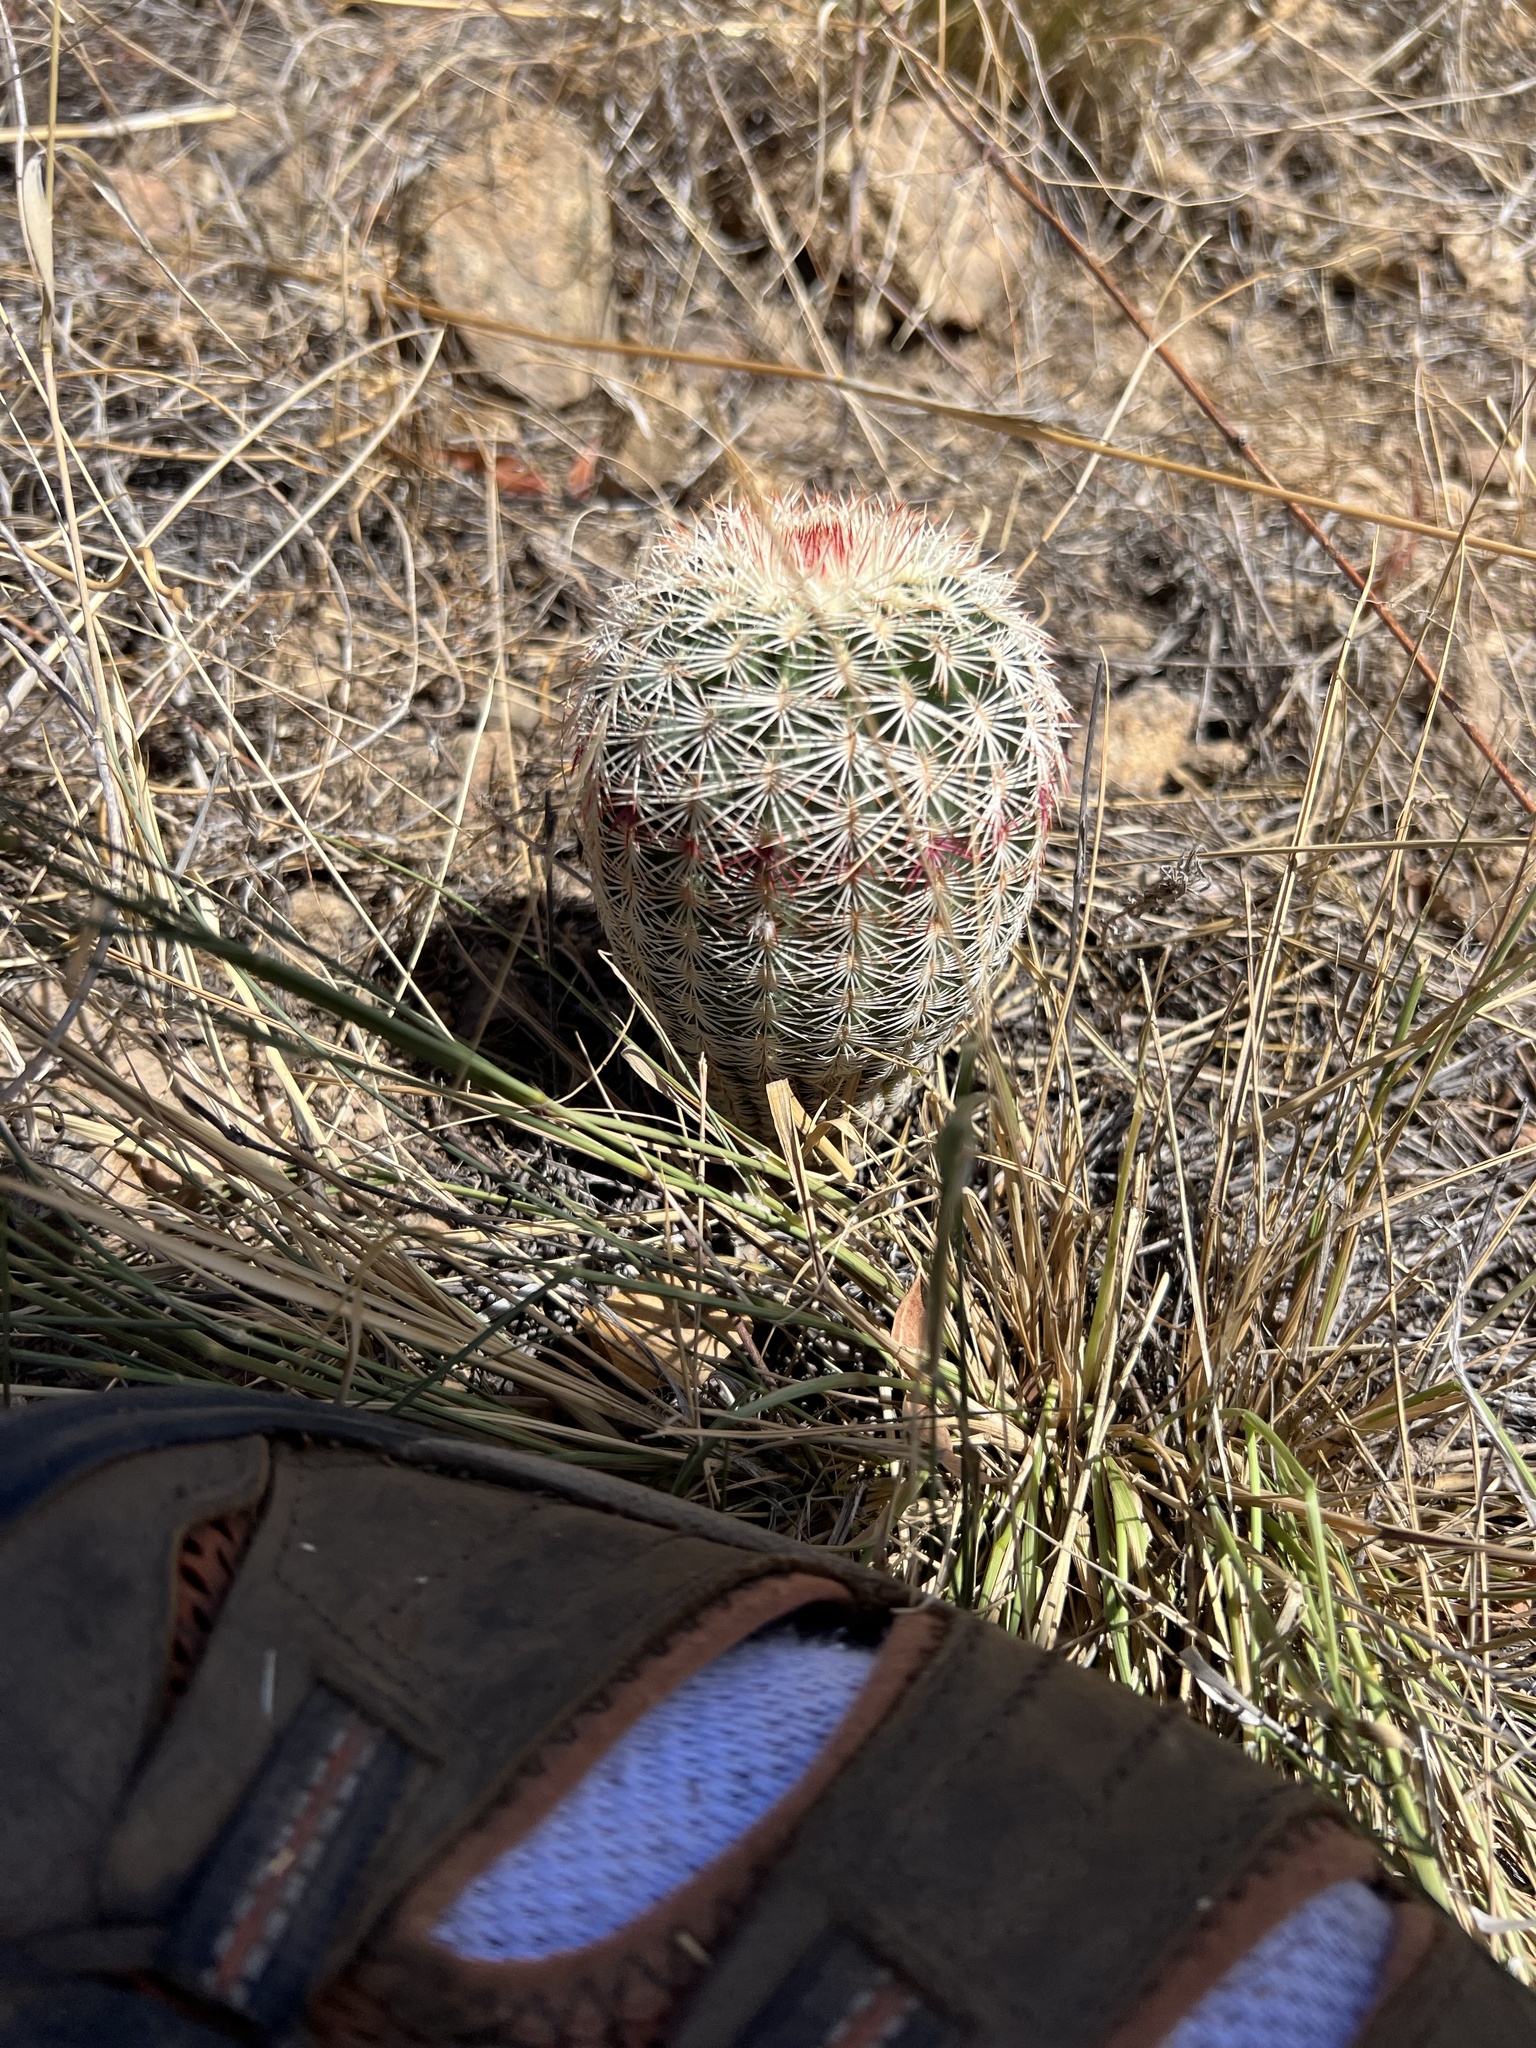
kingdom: Plantae
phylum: Tracheophyta
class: Magnoliopsida
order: Caryophyllales
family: Cactaceae
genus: Echinocereus
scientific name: Echinocereus rigidissimus
